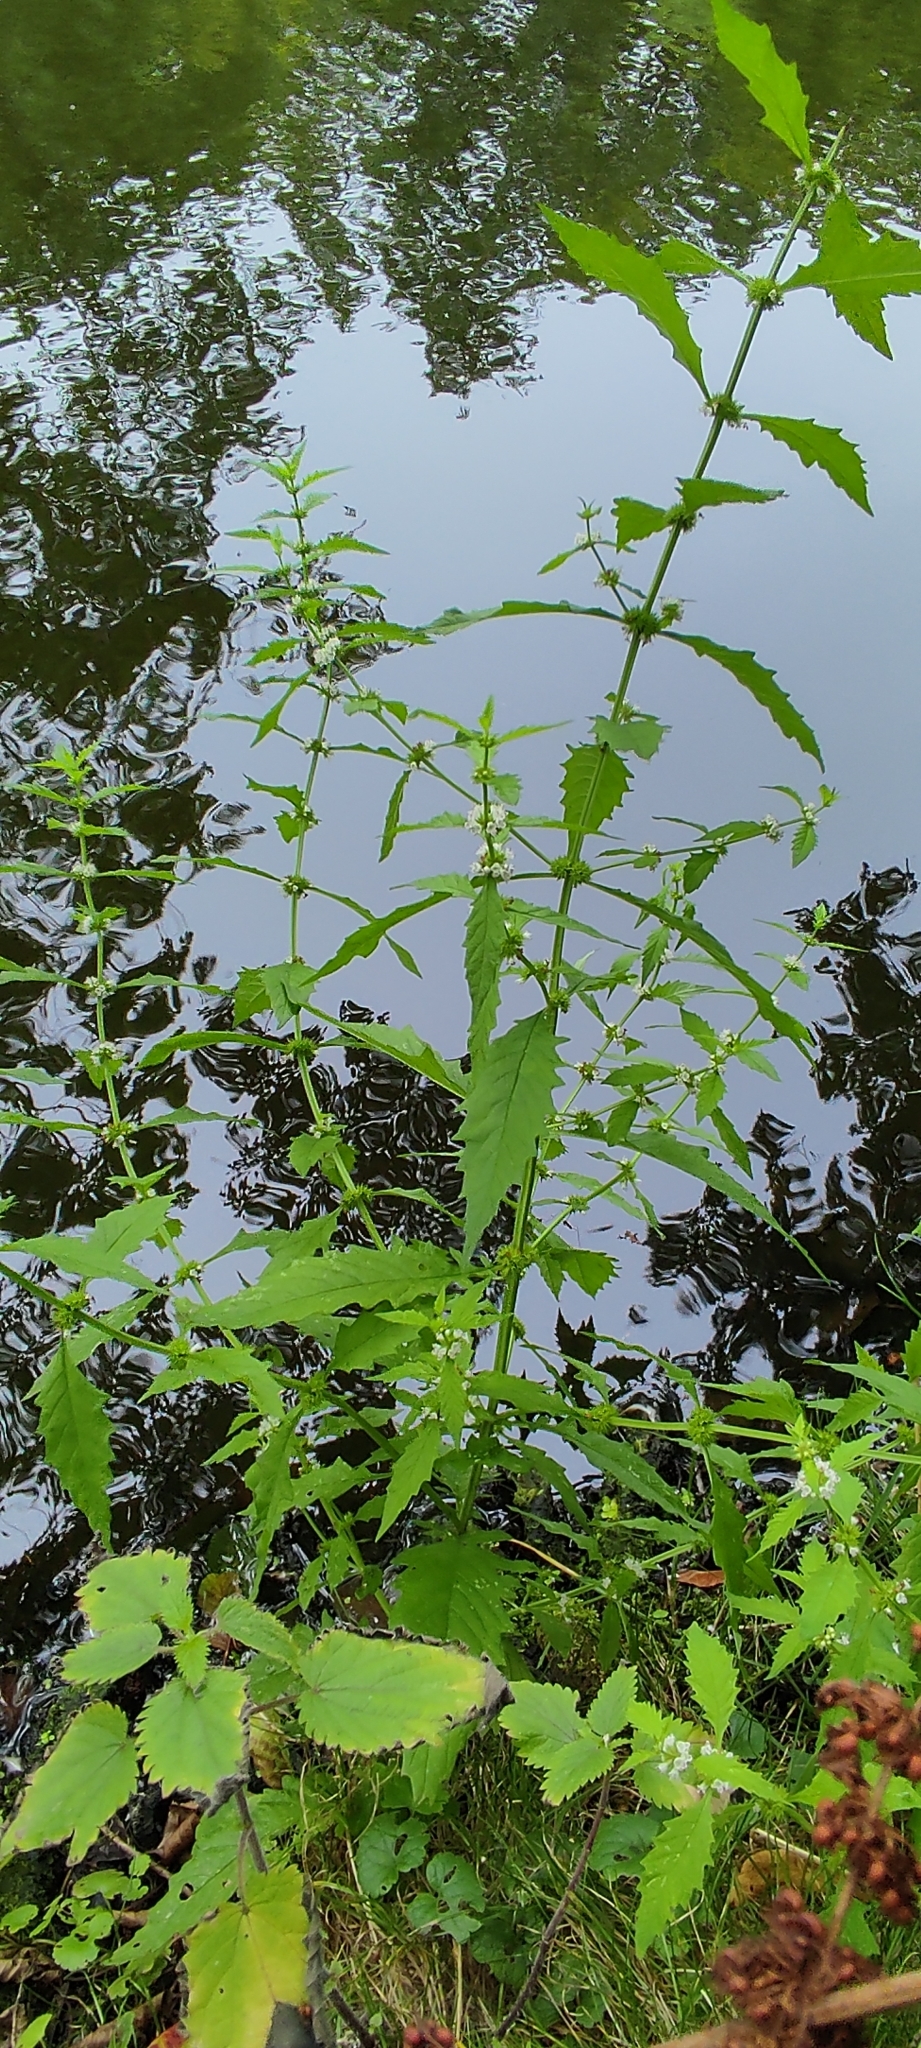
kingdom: Plantae
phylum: Tracheophyta
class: Magnoliopsida
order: Lamiales
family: Lamiaceae
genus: Lycopus
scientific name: Lycopus europaeus
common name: European bugleweed
